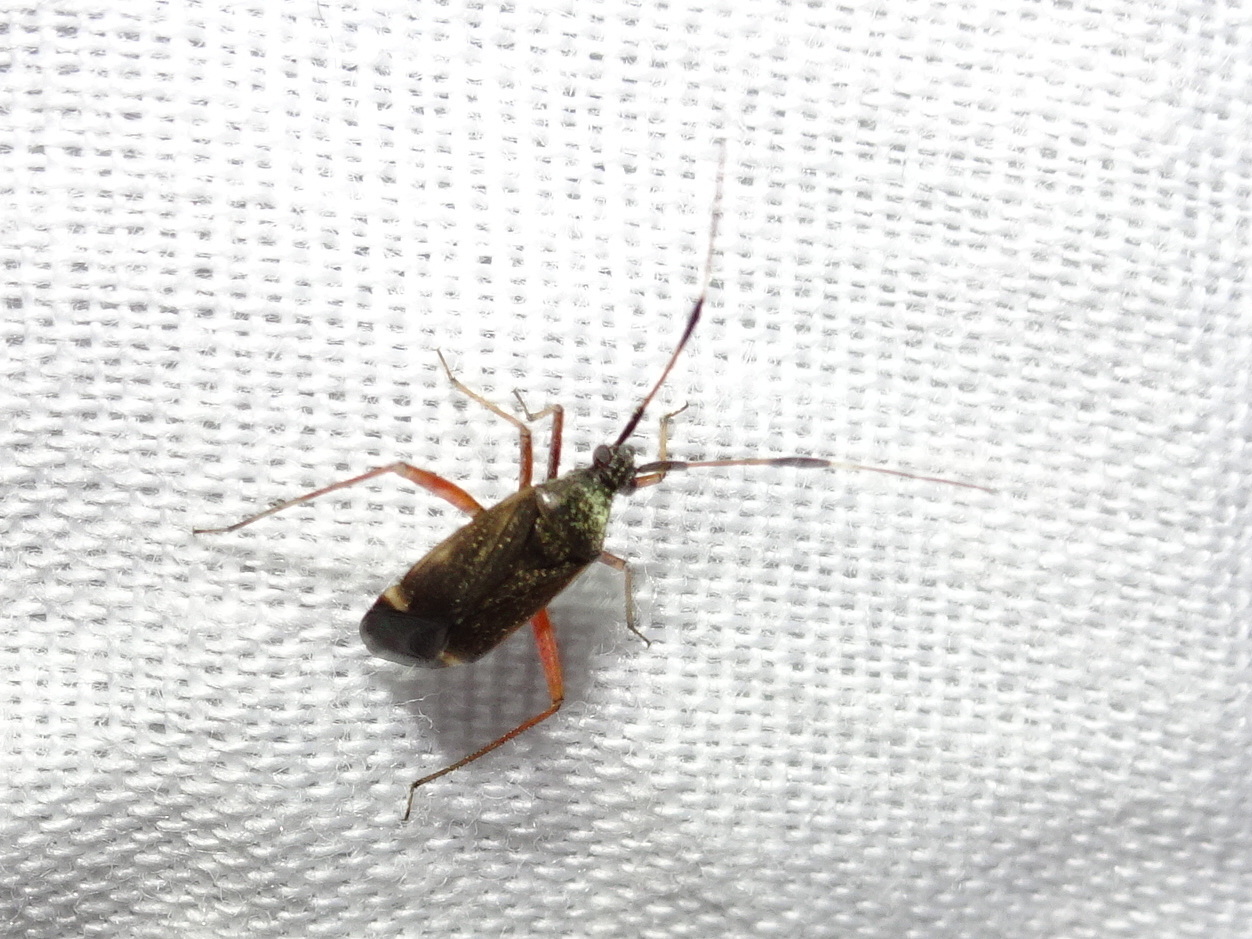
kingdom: Animalia
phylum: Arthropoda
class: Insecta
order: Hemiptera
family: Miridae
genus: Closterotomus
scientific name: Closterotomus biclavatus
